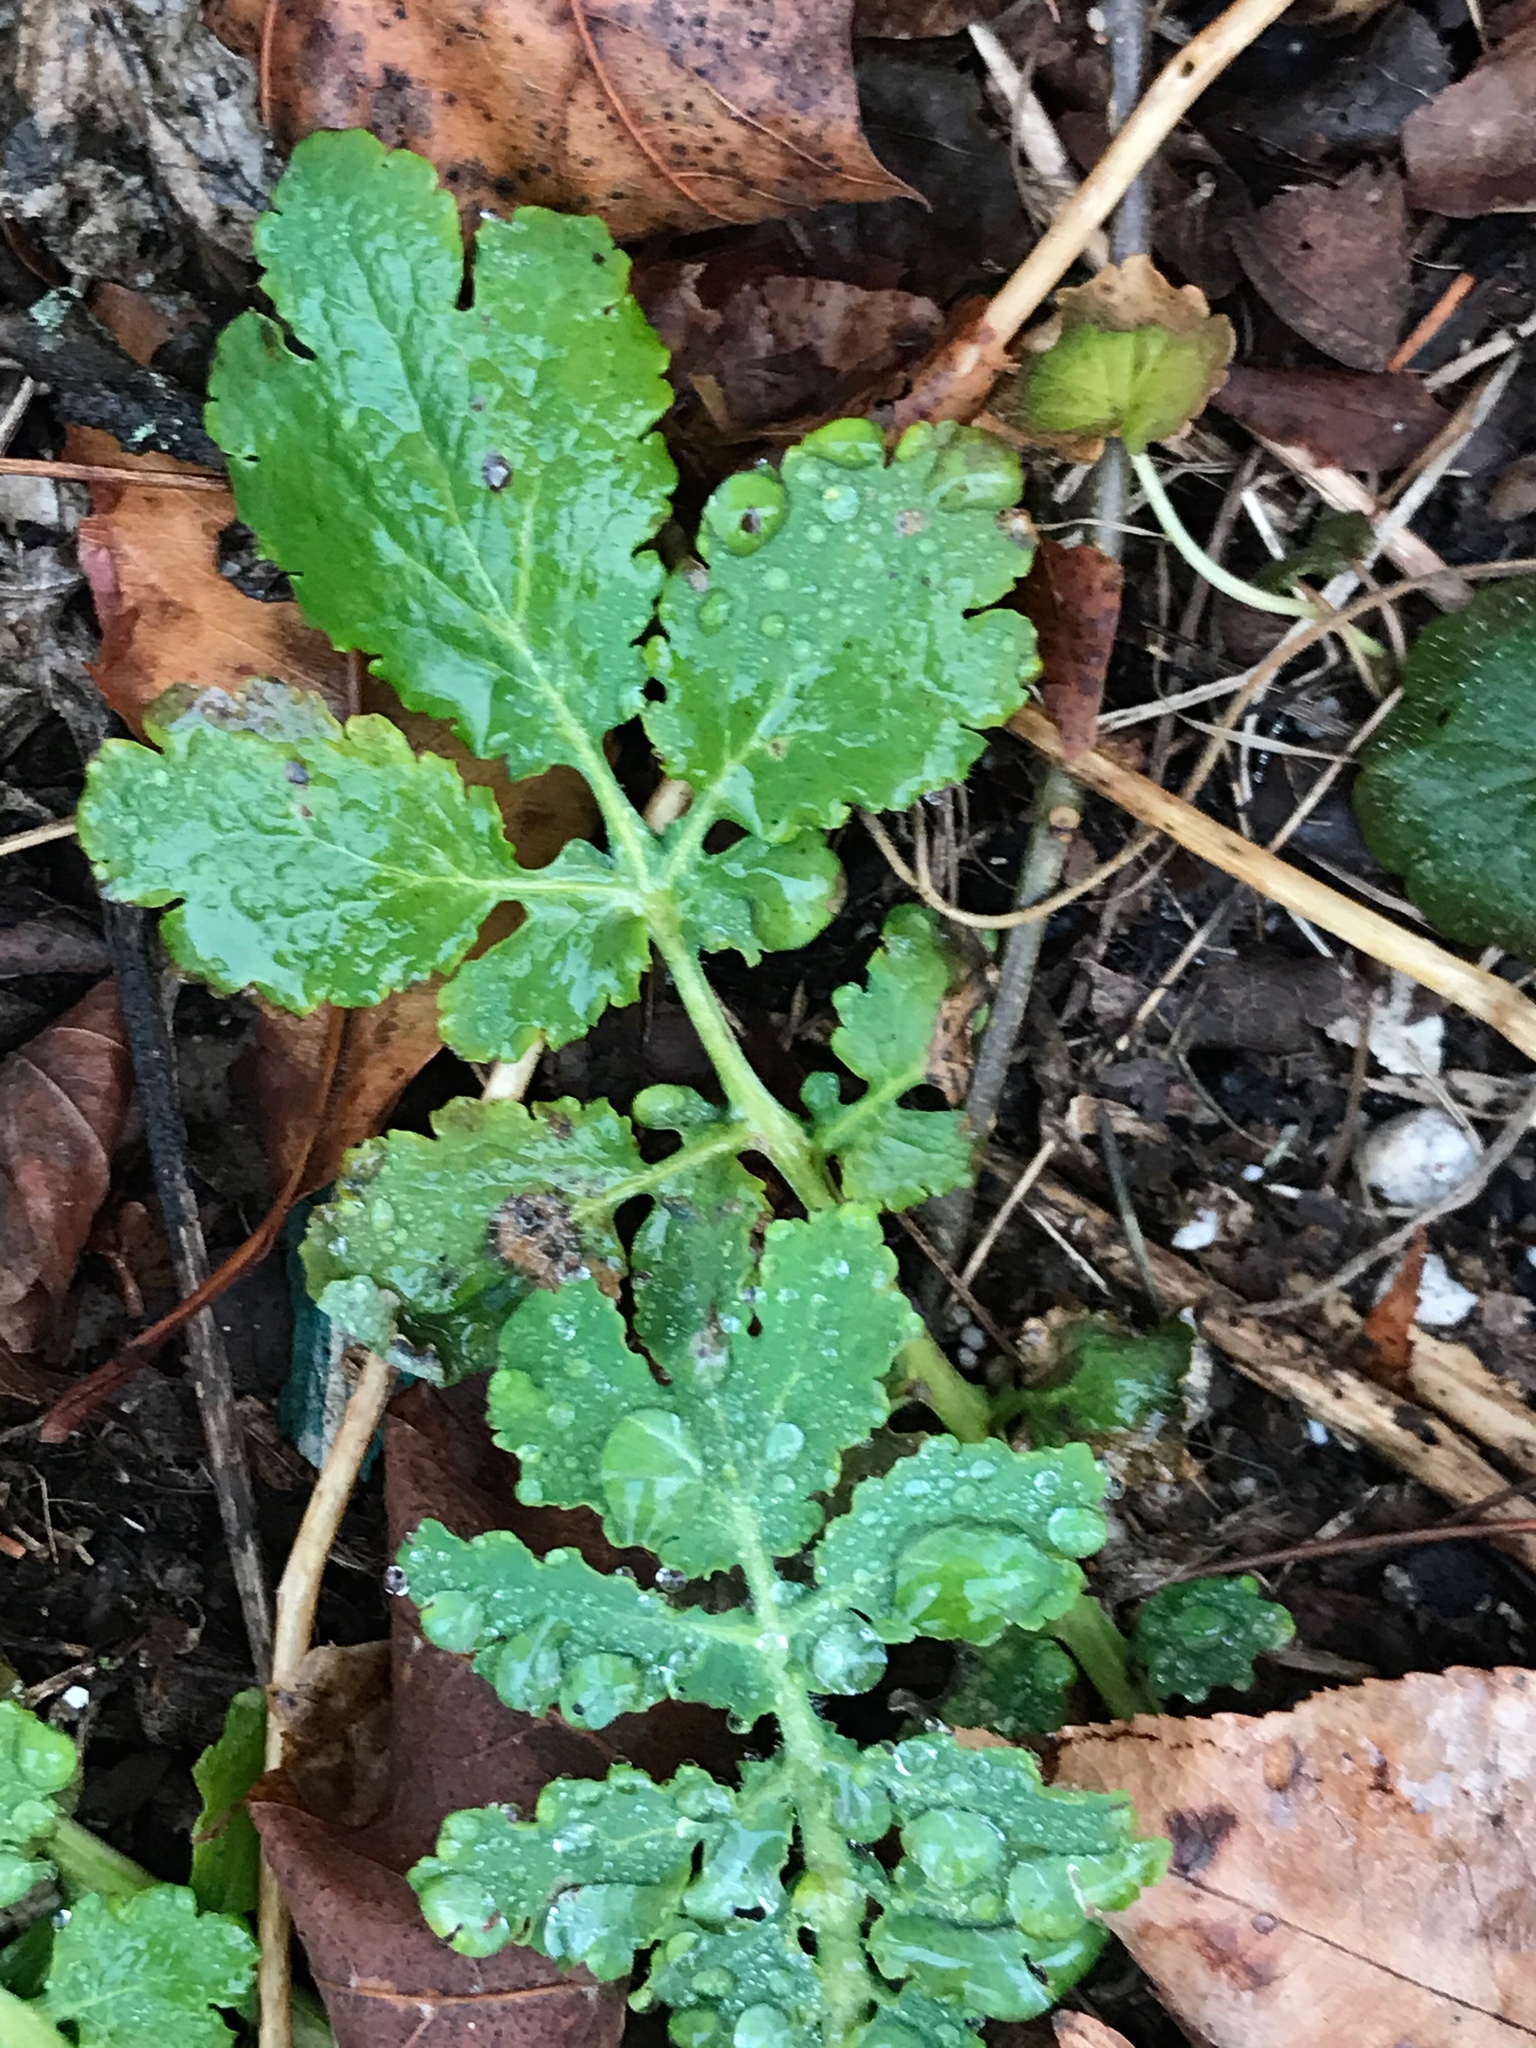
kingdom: Plantae
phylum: Tracheophyta
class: Magnoliopsida
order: Ranunculales
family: Papaveraceae
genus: Chelidonium
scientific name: Chelidonium majus
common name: Greater celandine
